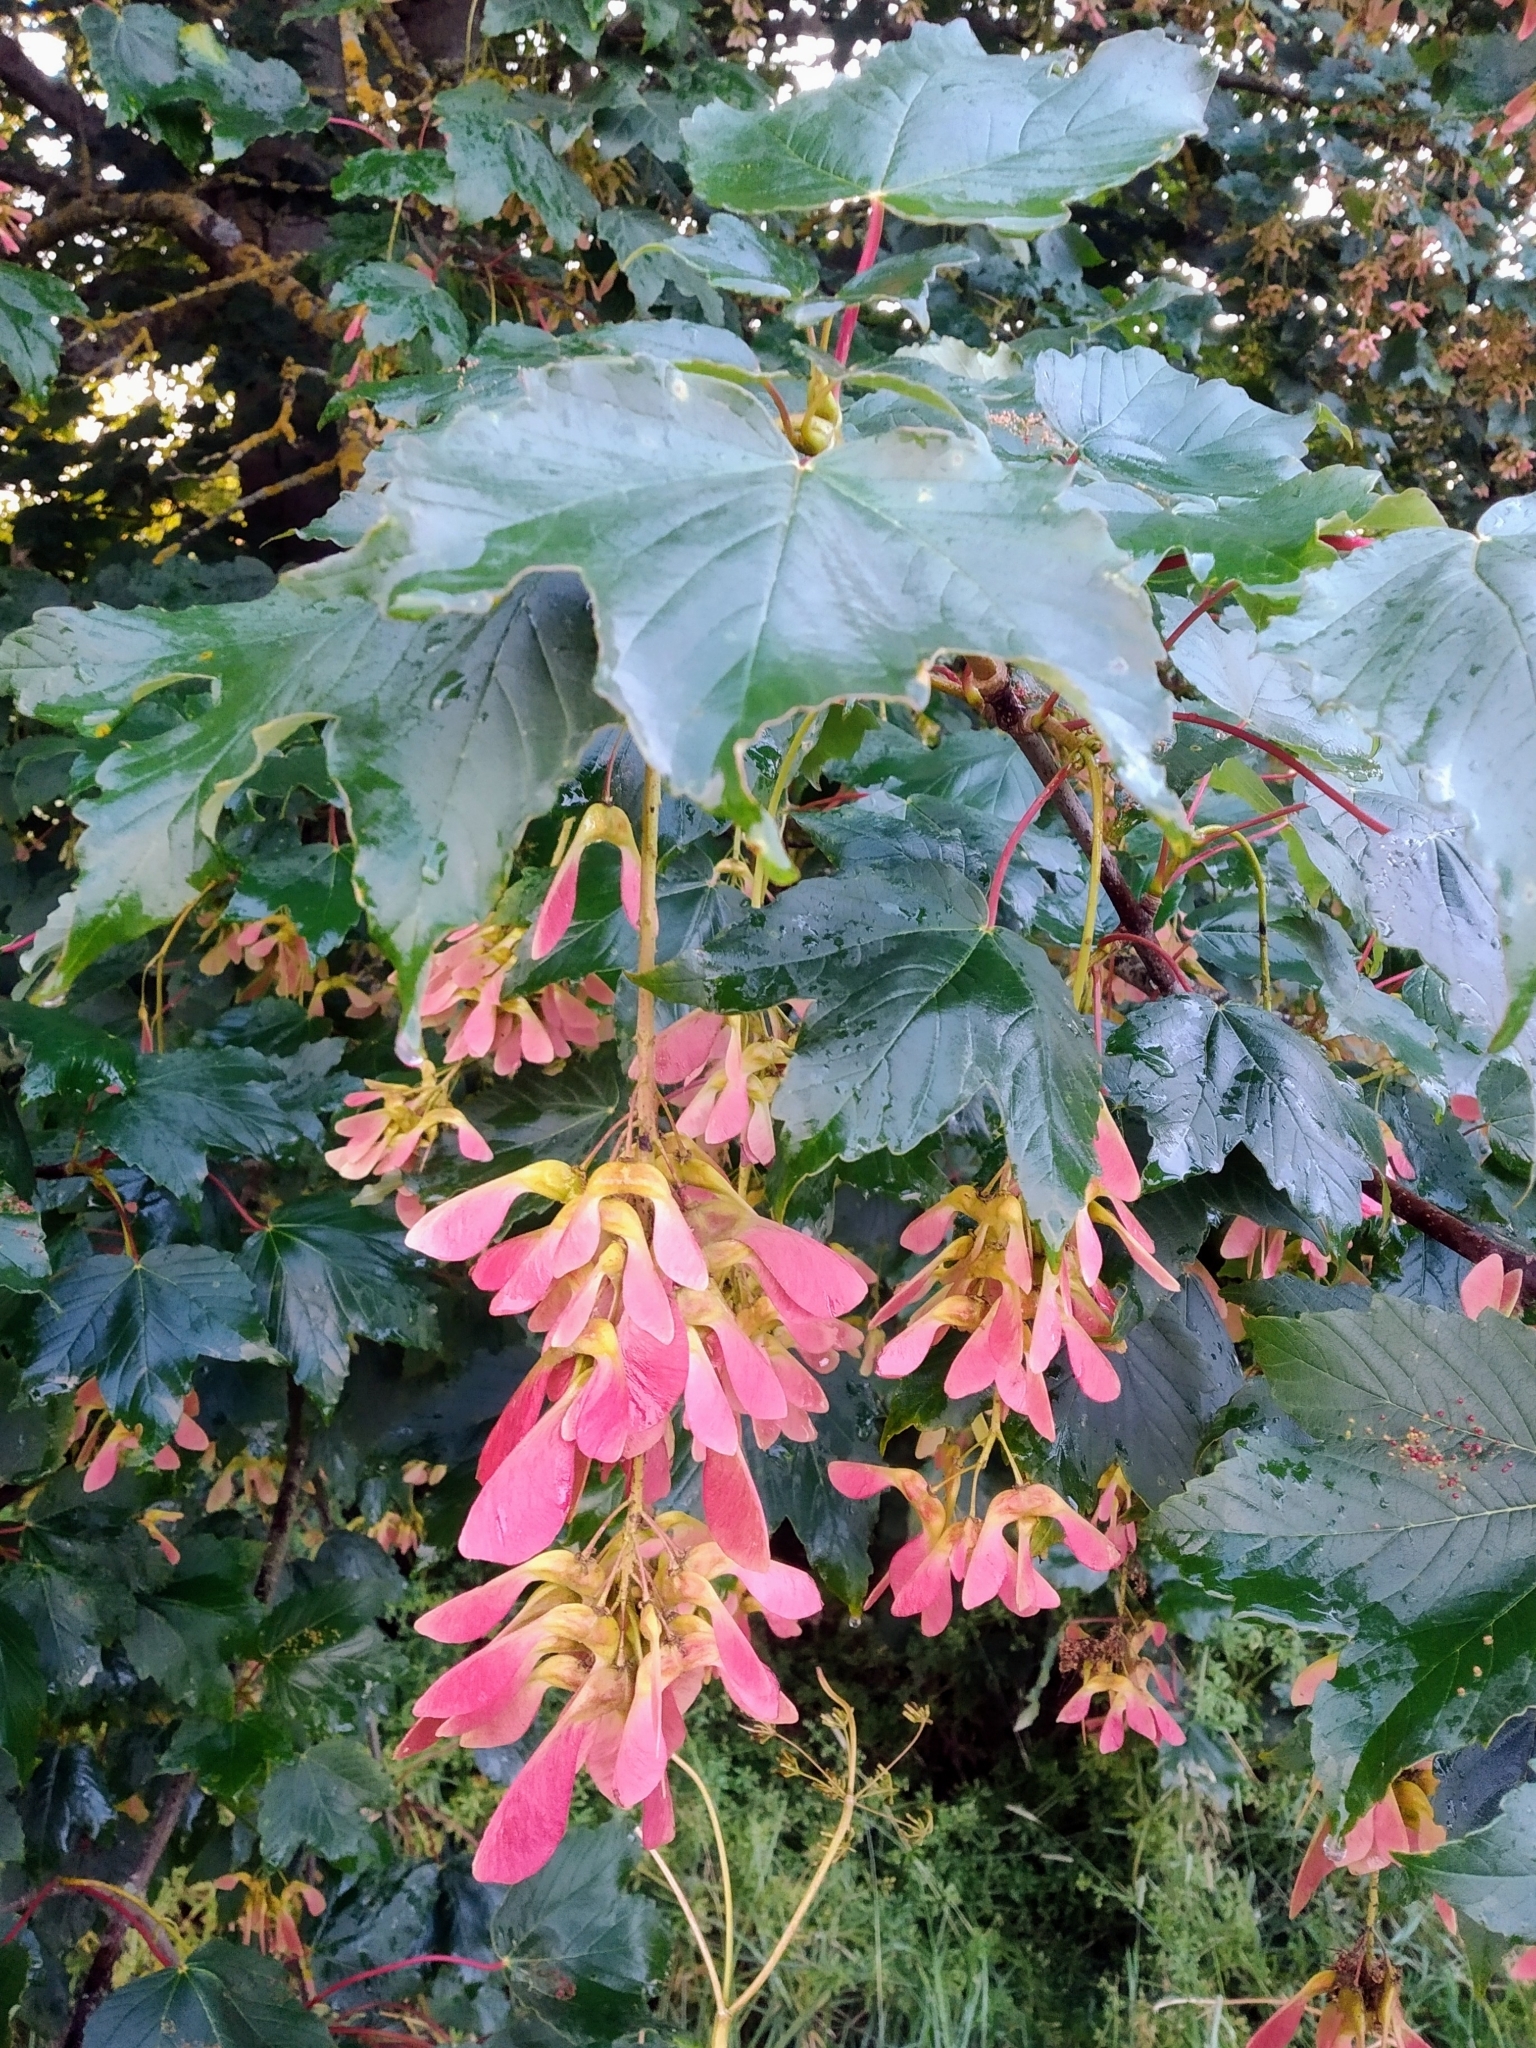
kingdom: Plantae
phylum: Tracheophyta
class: Magnoliopsida
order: Sapindales
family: Sapindaceae
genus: Acer
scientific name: Acer pseudoplatanus
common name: Sycamore
